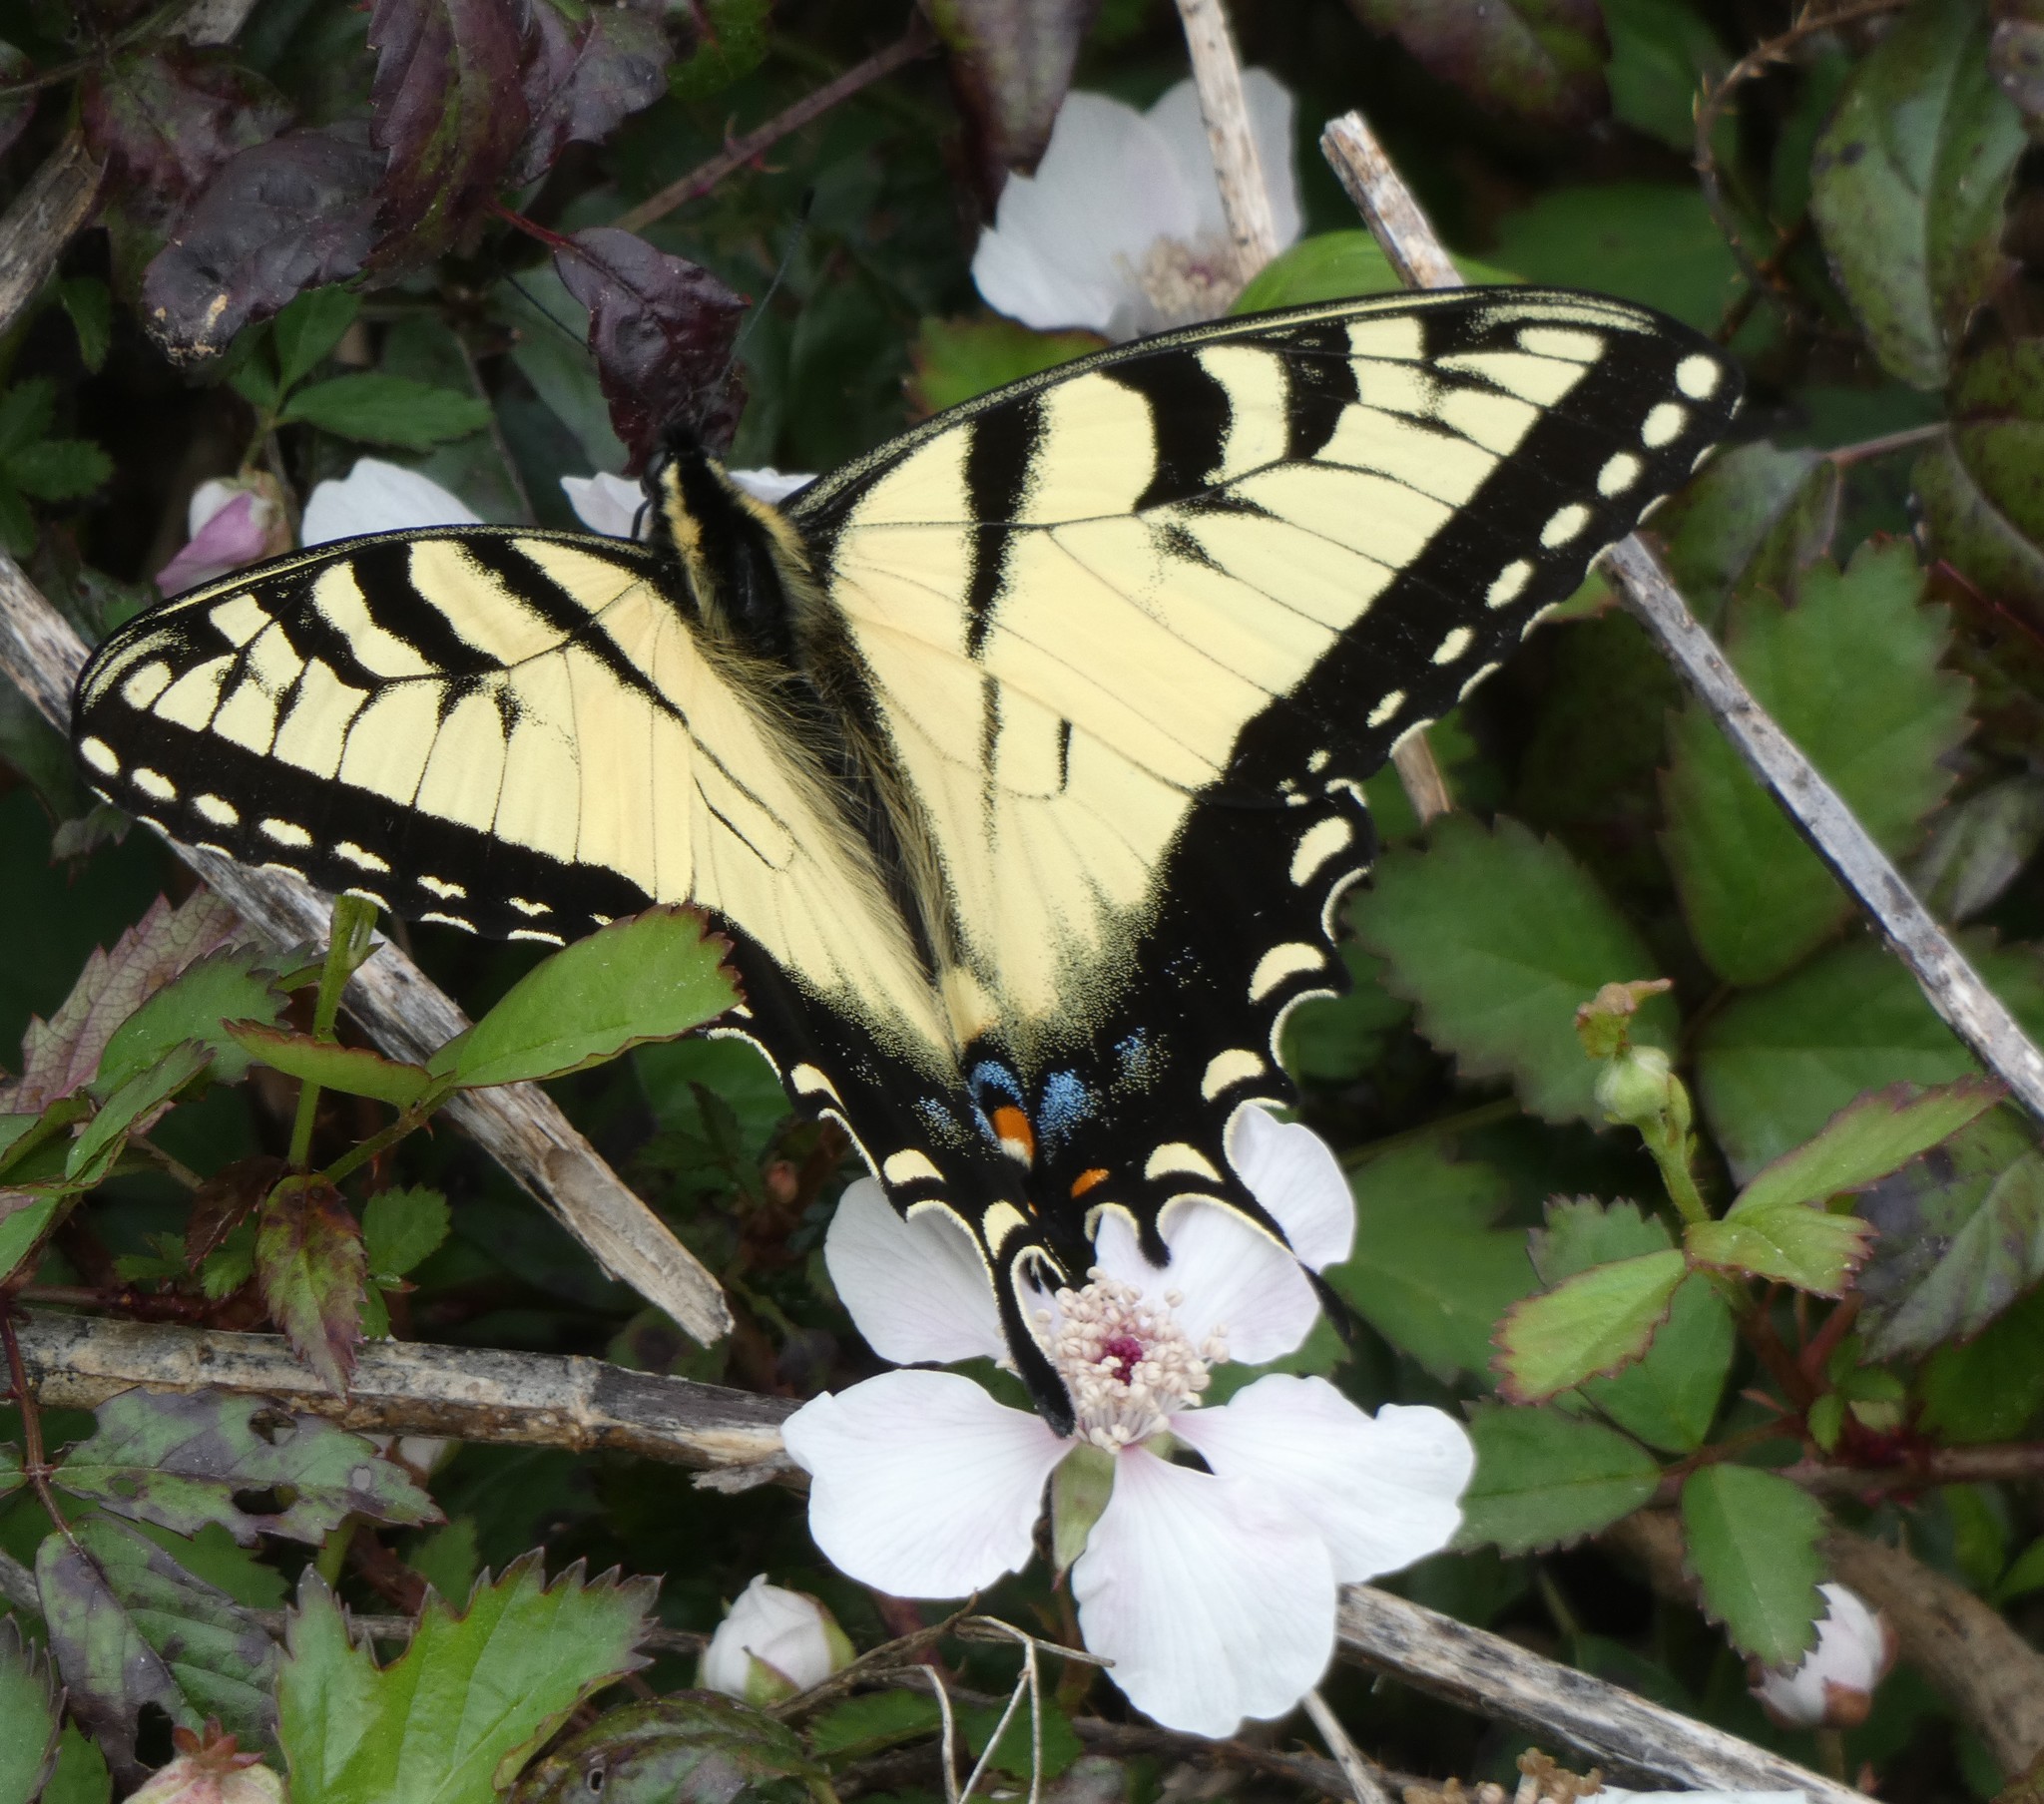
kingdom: Animalia
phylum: Arthropoda
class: Insecta
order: Lepidoptera
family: Papilionidae
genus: Papilio
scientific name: Papilio glaucus
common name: Tiger swallowtail
